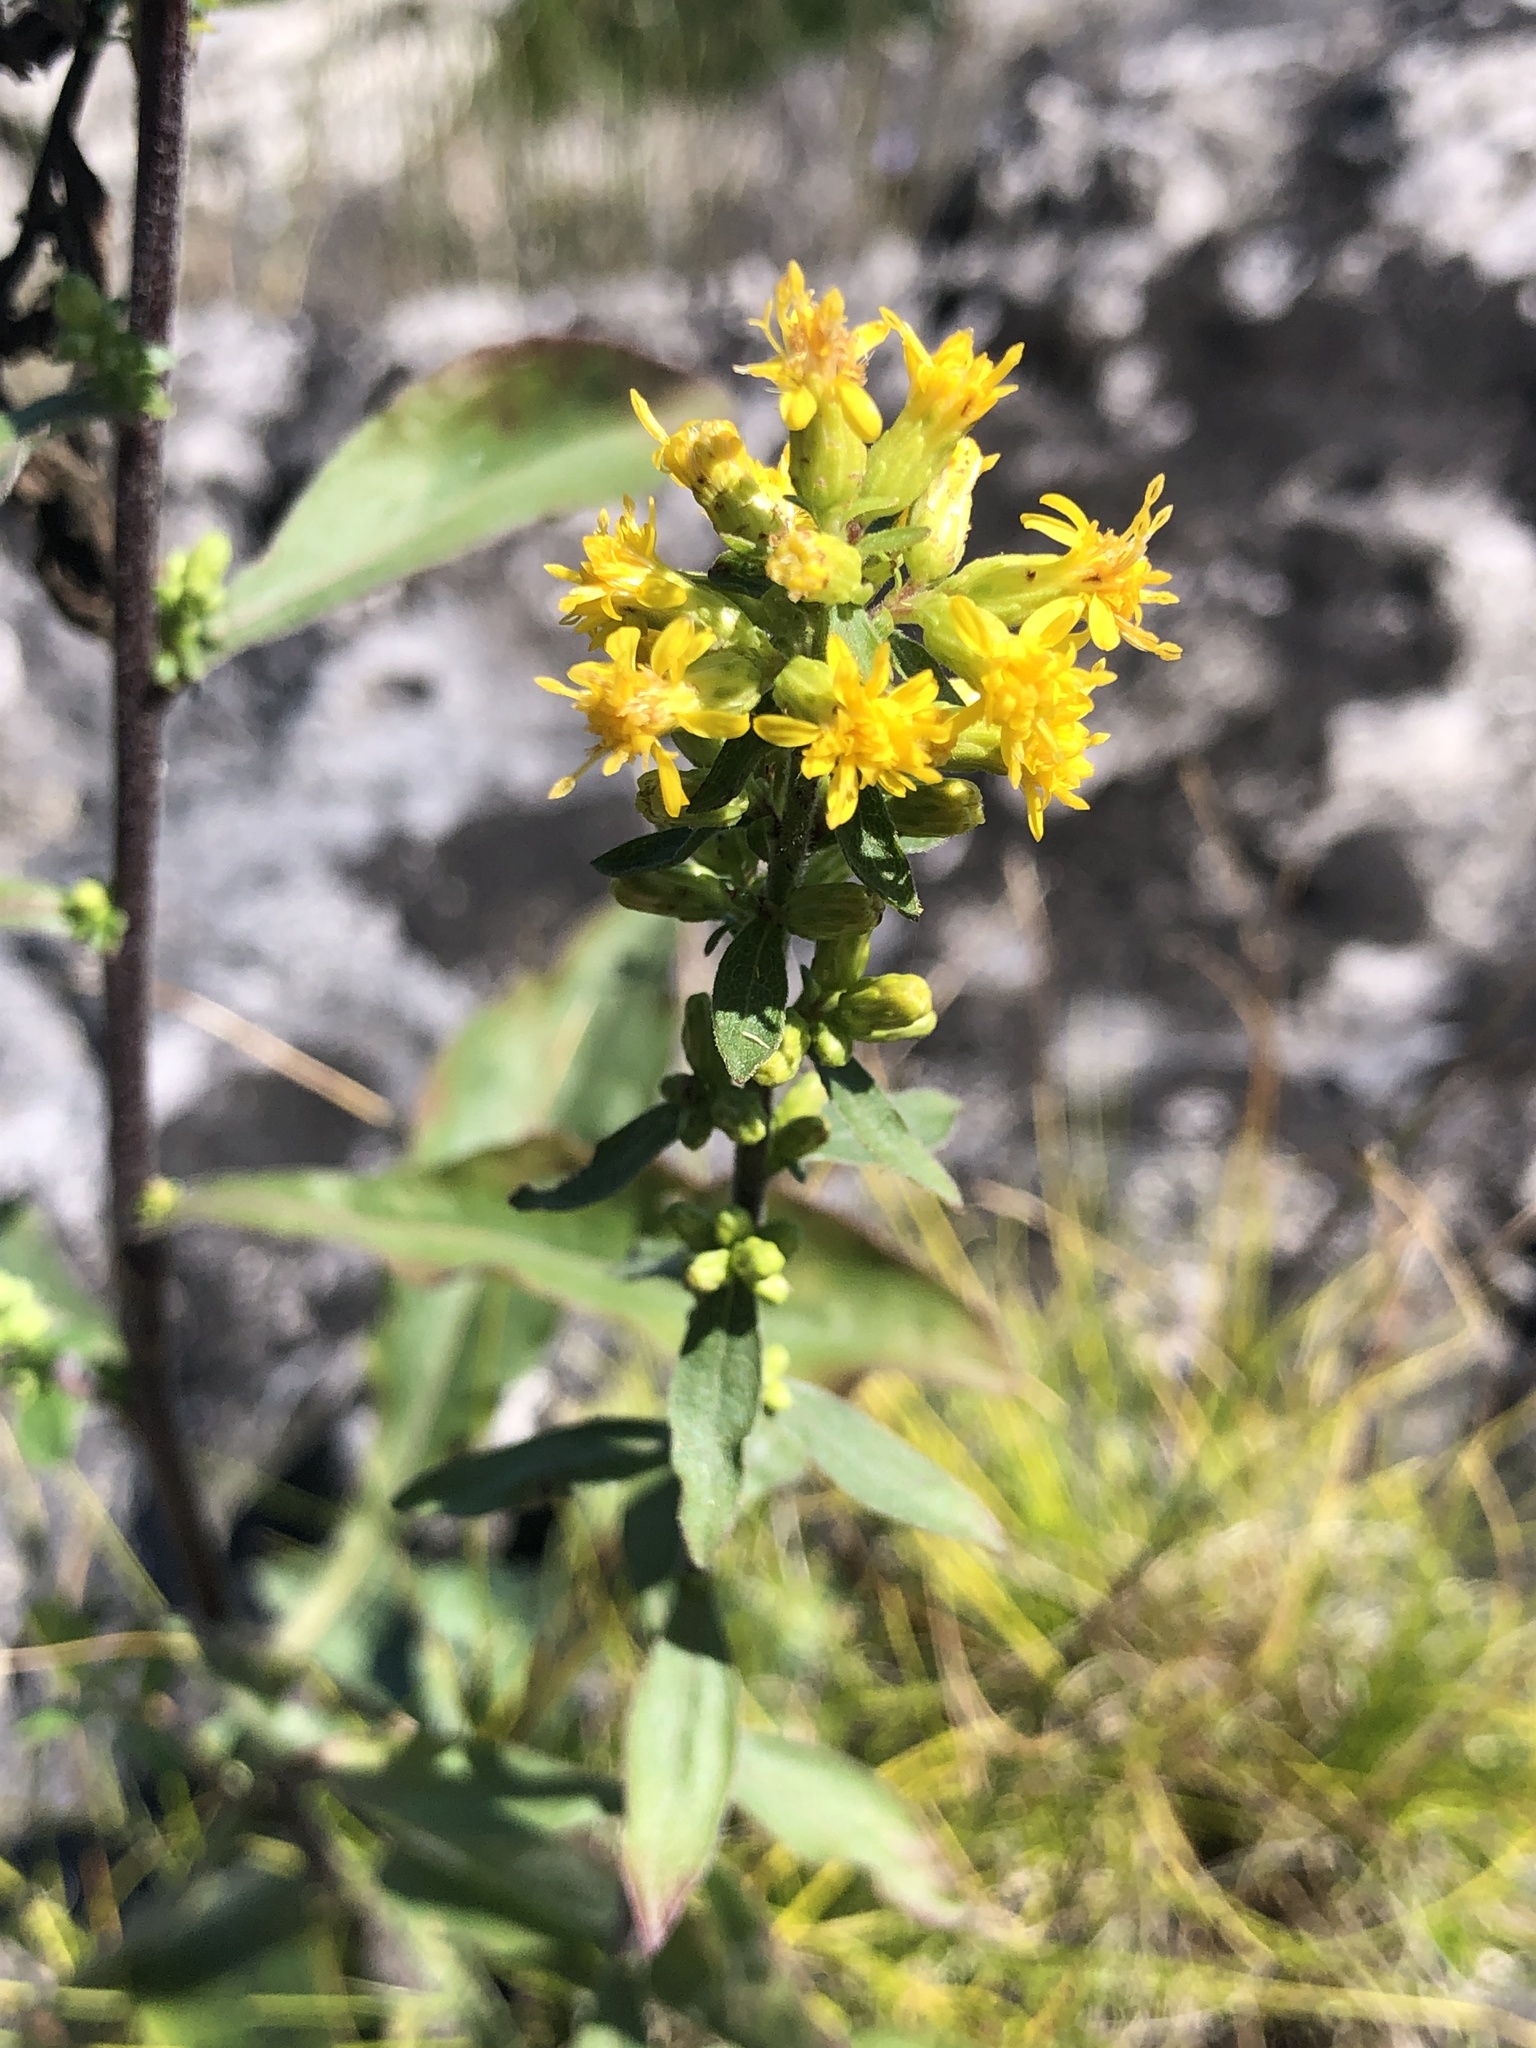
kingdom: Plantae
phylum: Tracheophyta
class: Magnoliopsida
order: Asterales
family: Asteraceae
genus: Solidago
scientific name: Solidago hispida
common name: Hairy goldenrod
